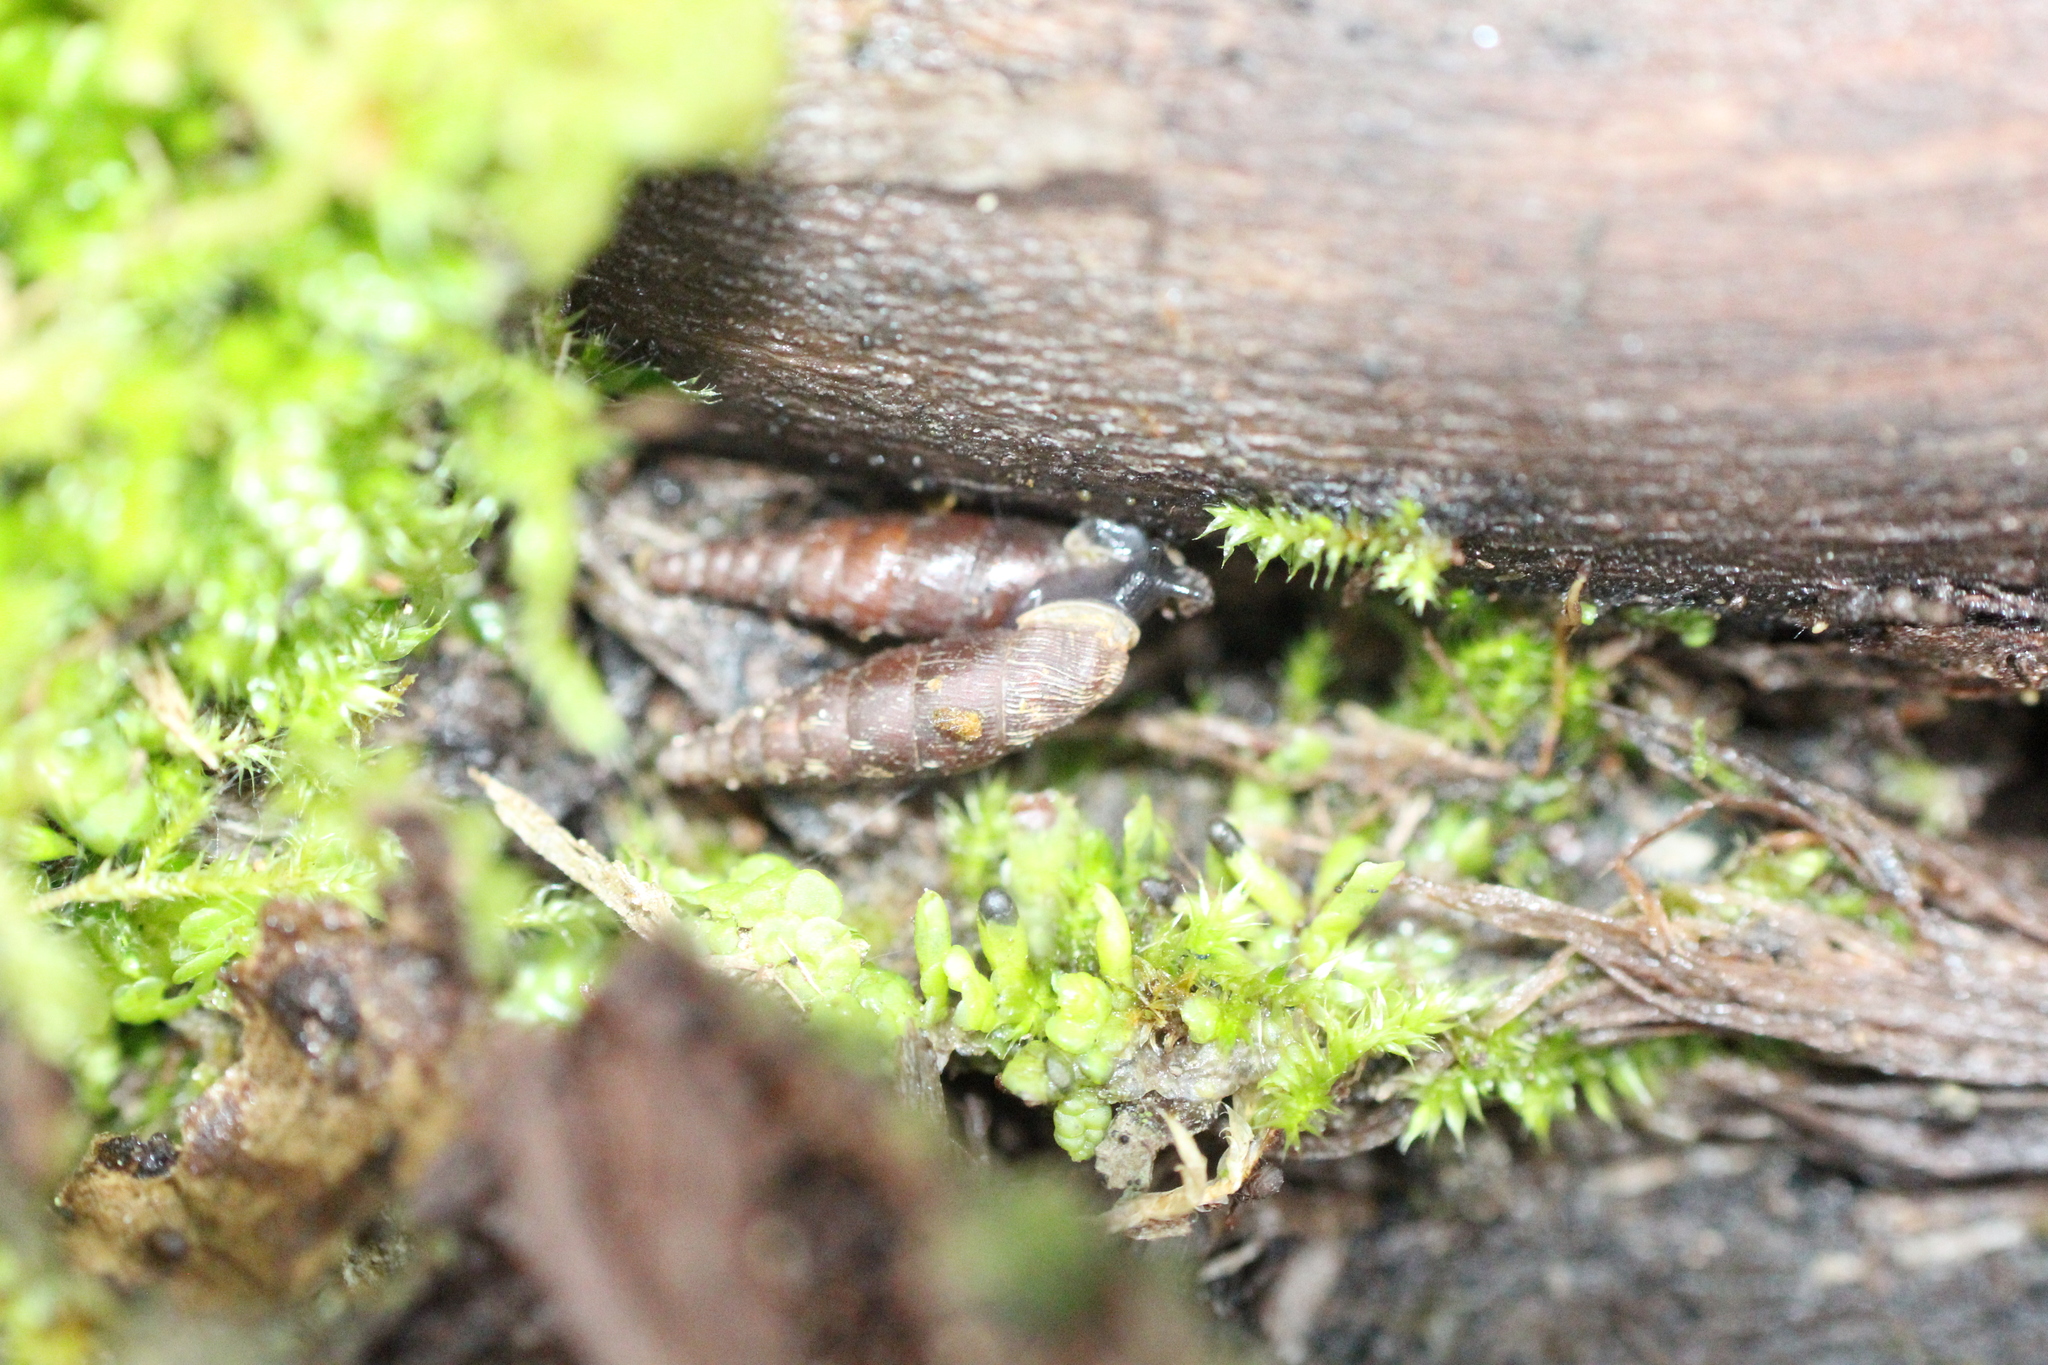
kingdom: Animalia
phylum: Mollusca
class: Gastropoda
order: Stylommatophora
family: Clausiliidae
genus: Clausilia
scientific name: Clausilia bidentata
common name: Two-toothed door snail
